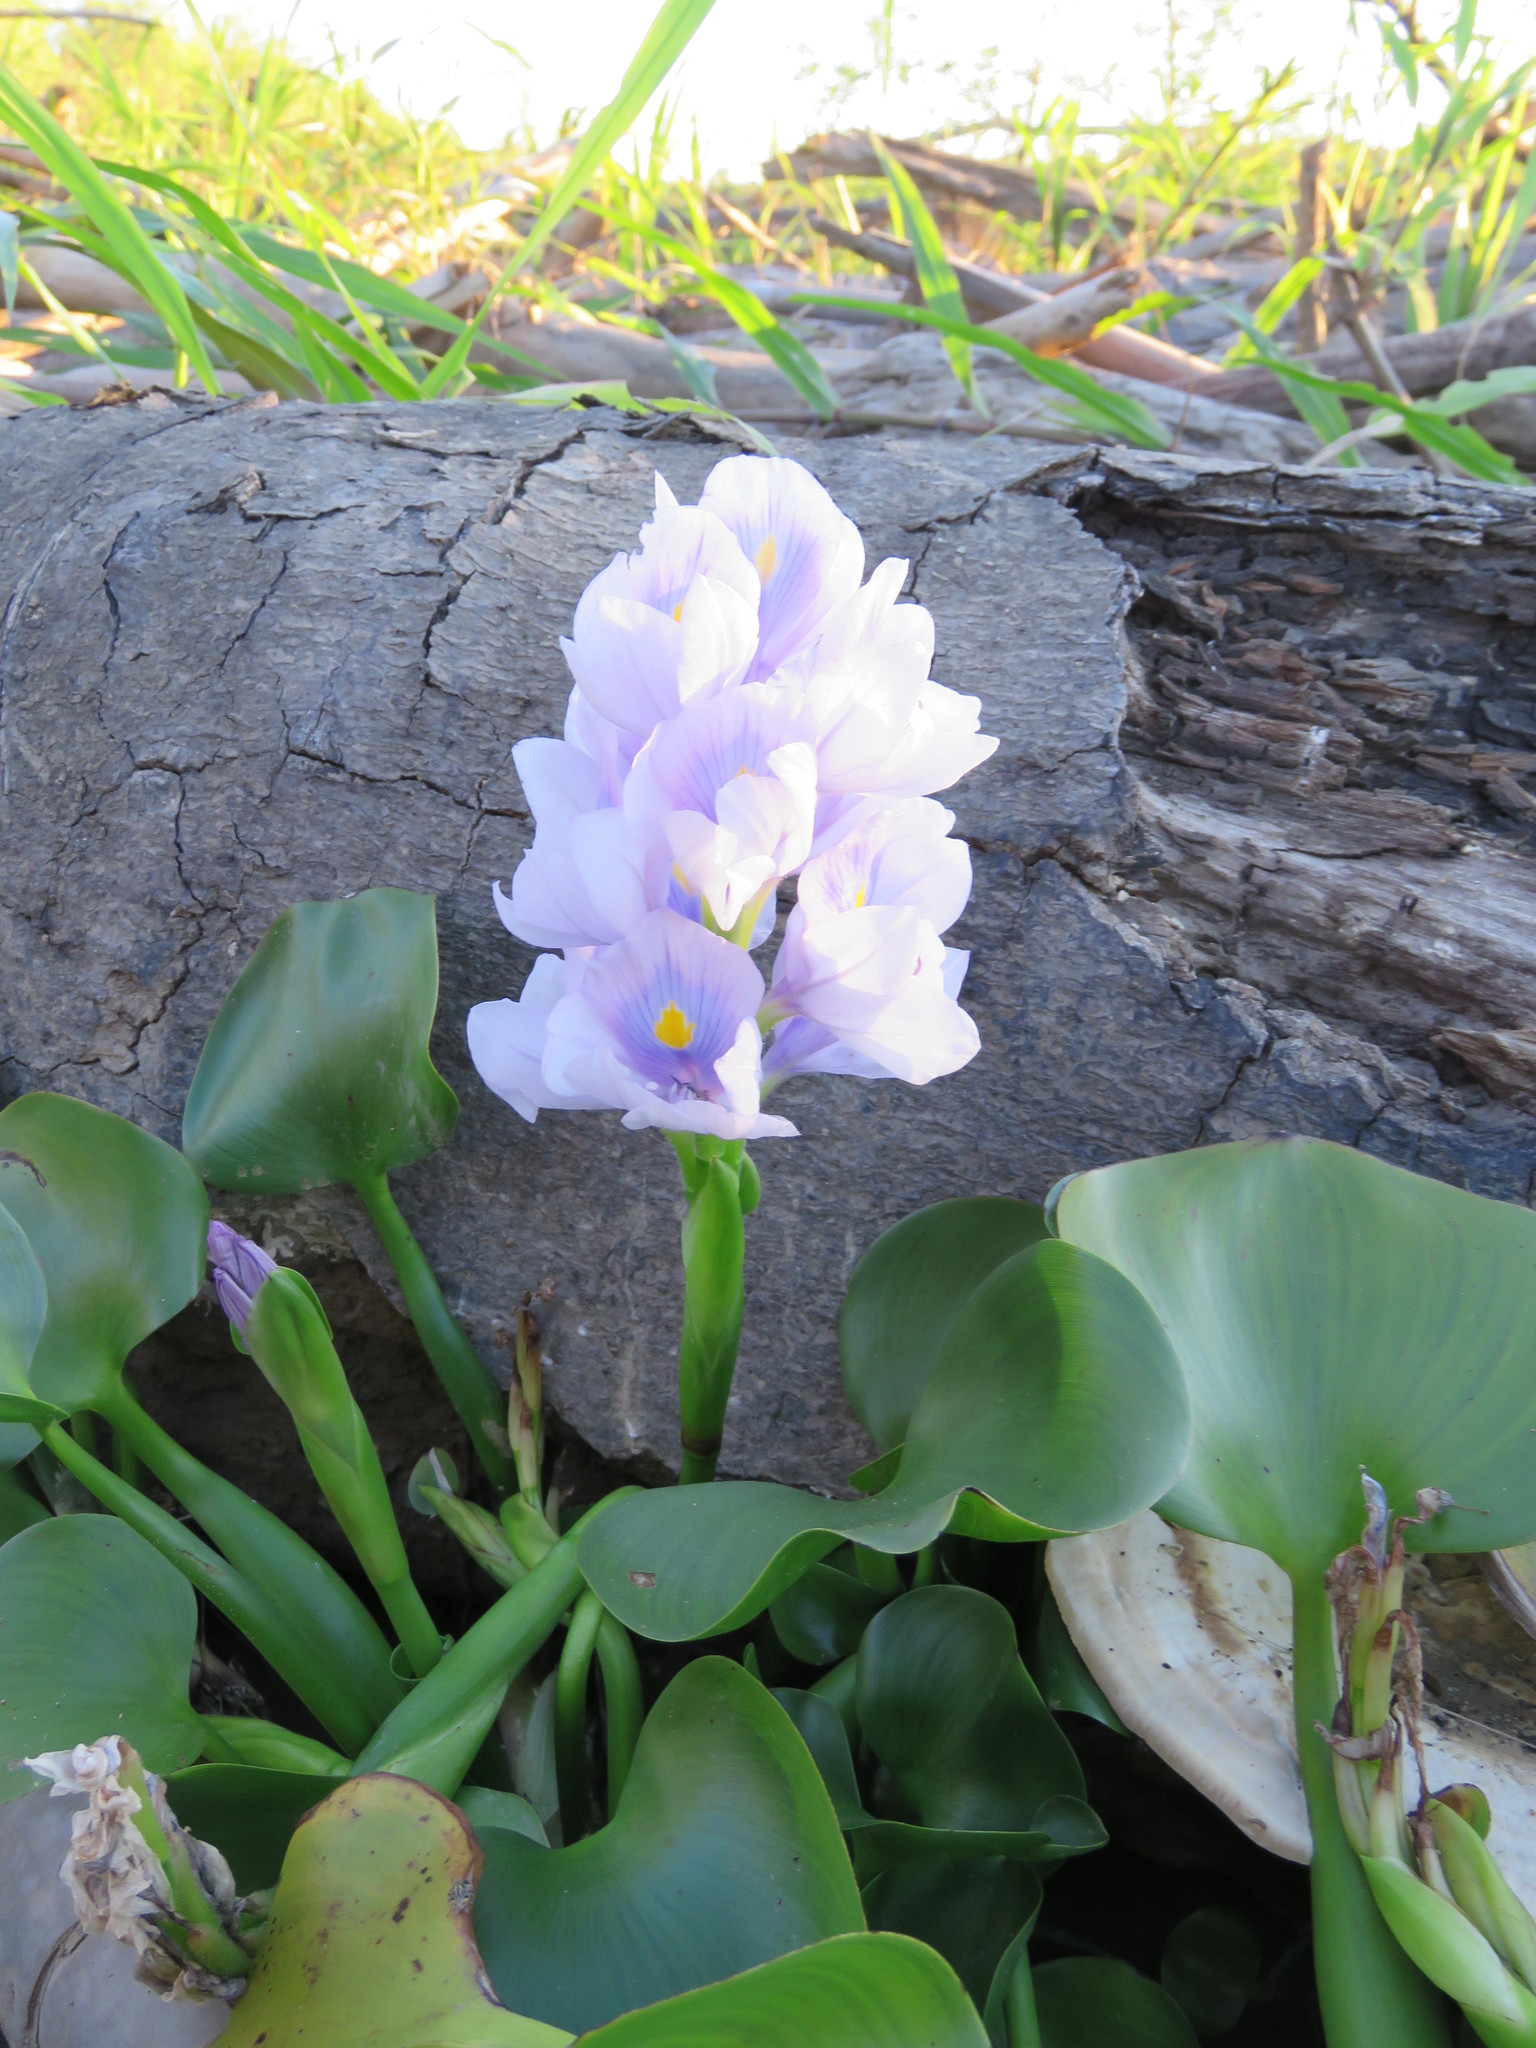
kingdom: Plantae
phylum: Tracheophyta
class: Liliopsida
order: Commelinales
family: Pontederiaceae
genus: Pontederia
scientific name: Pontederia crassipes
